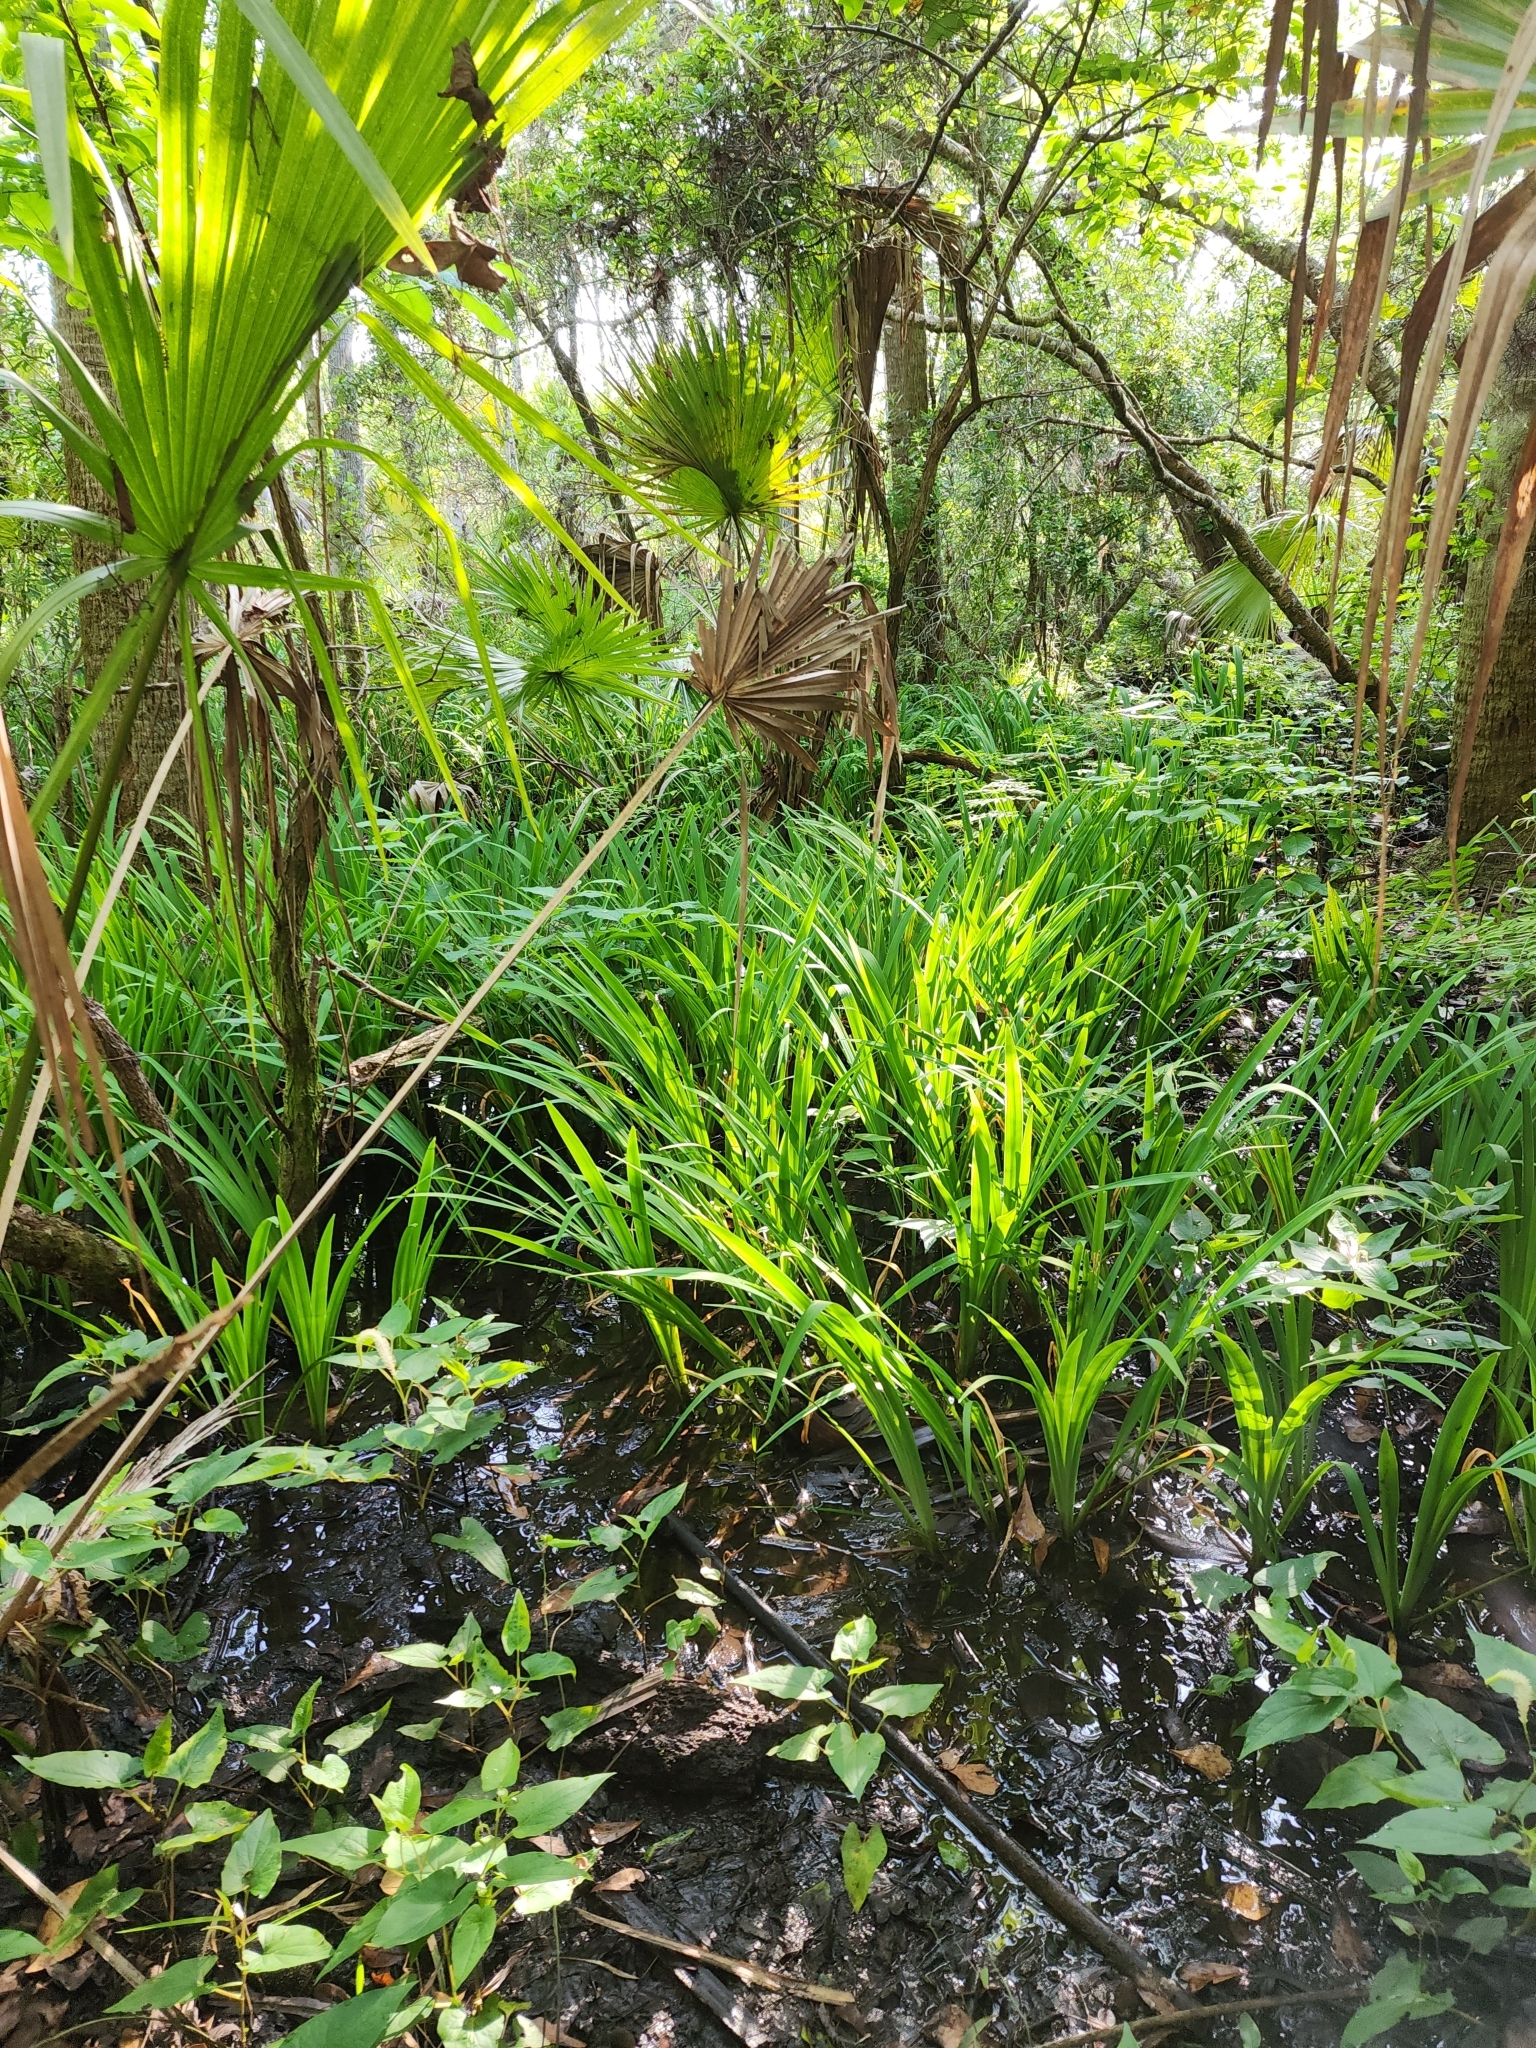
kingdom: Plantae
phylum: Tracheophyta
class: Liliopsida
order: Asparagales
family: Iridaceae
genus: Iris
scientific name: Iris virginica
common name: Southern blue flag
